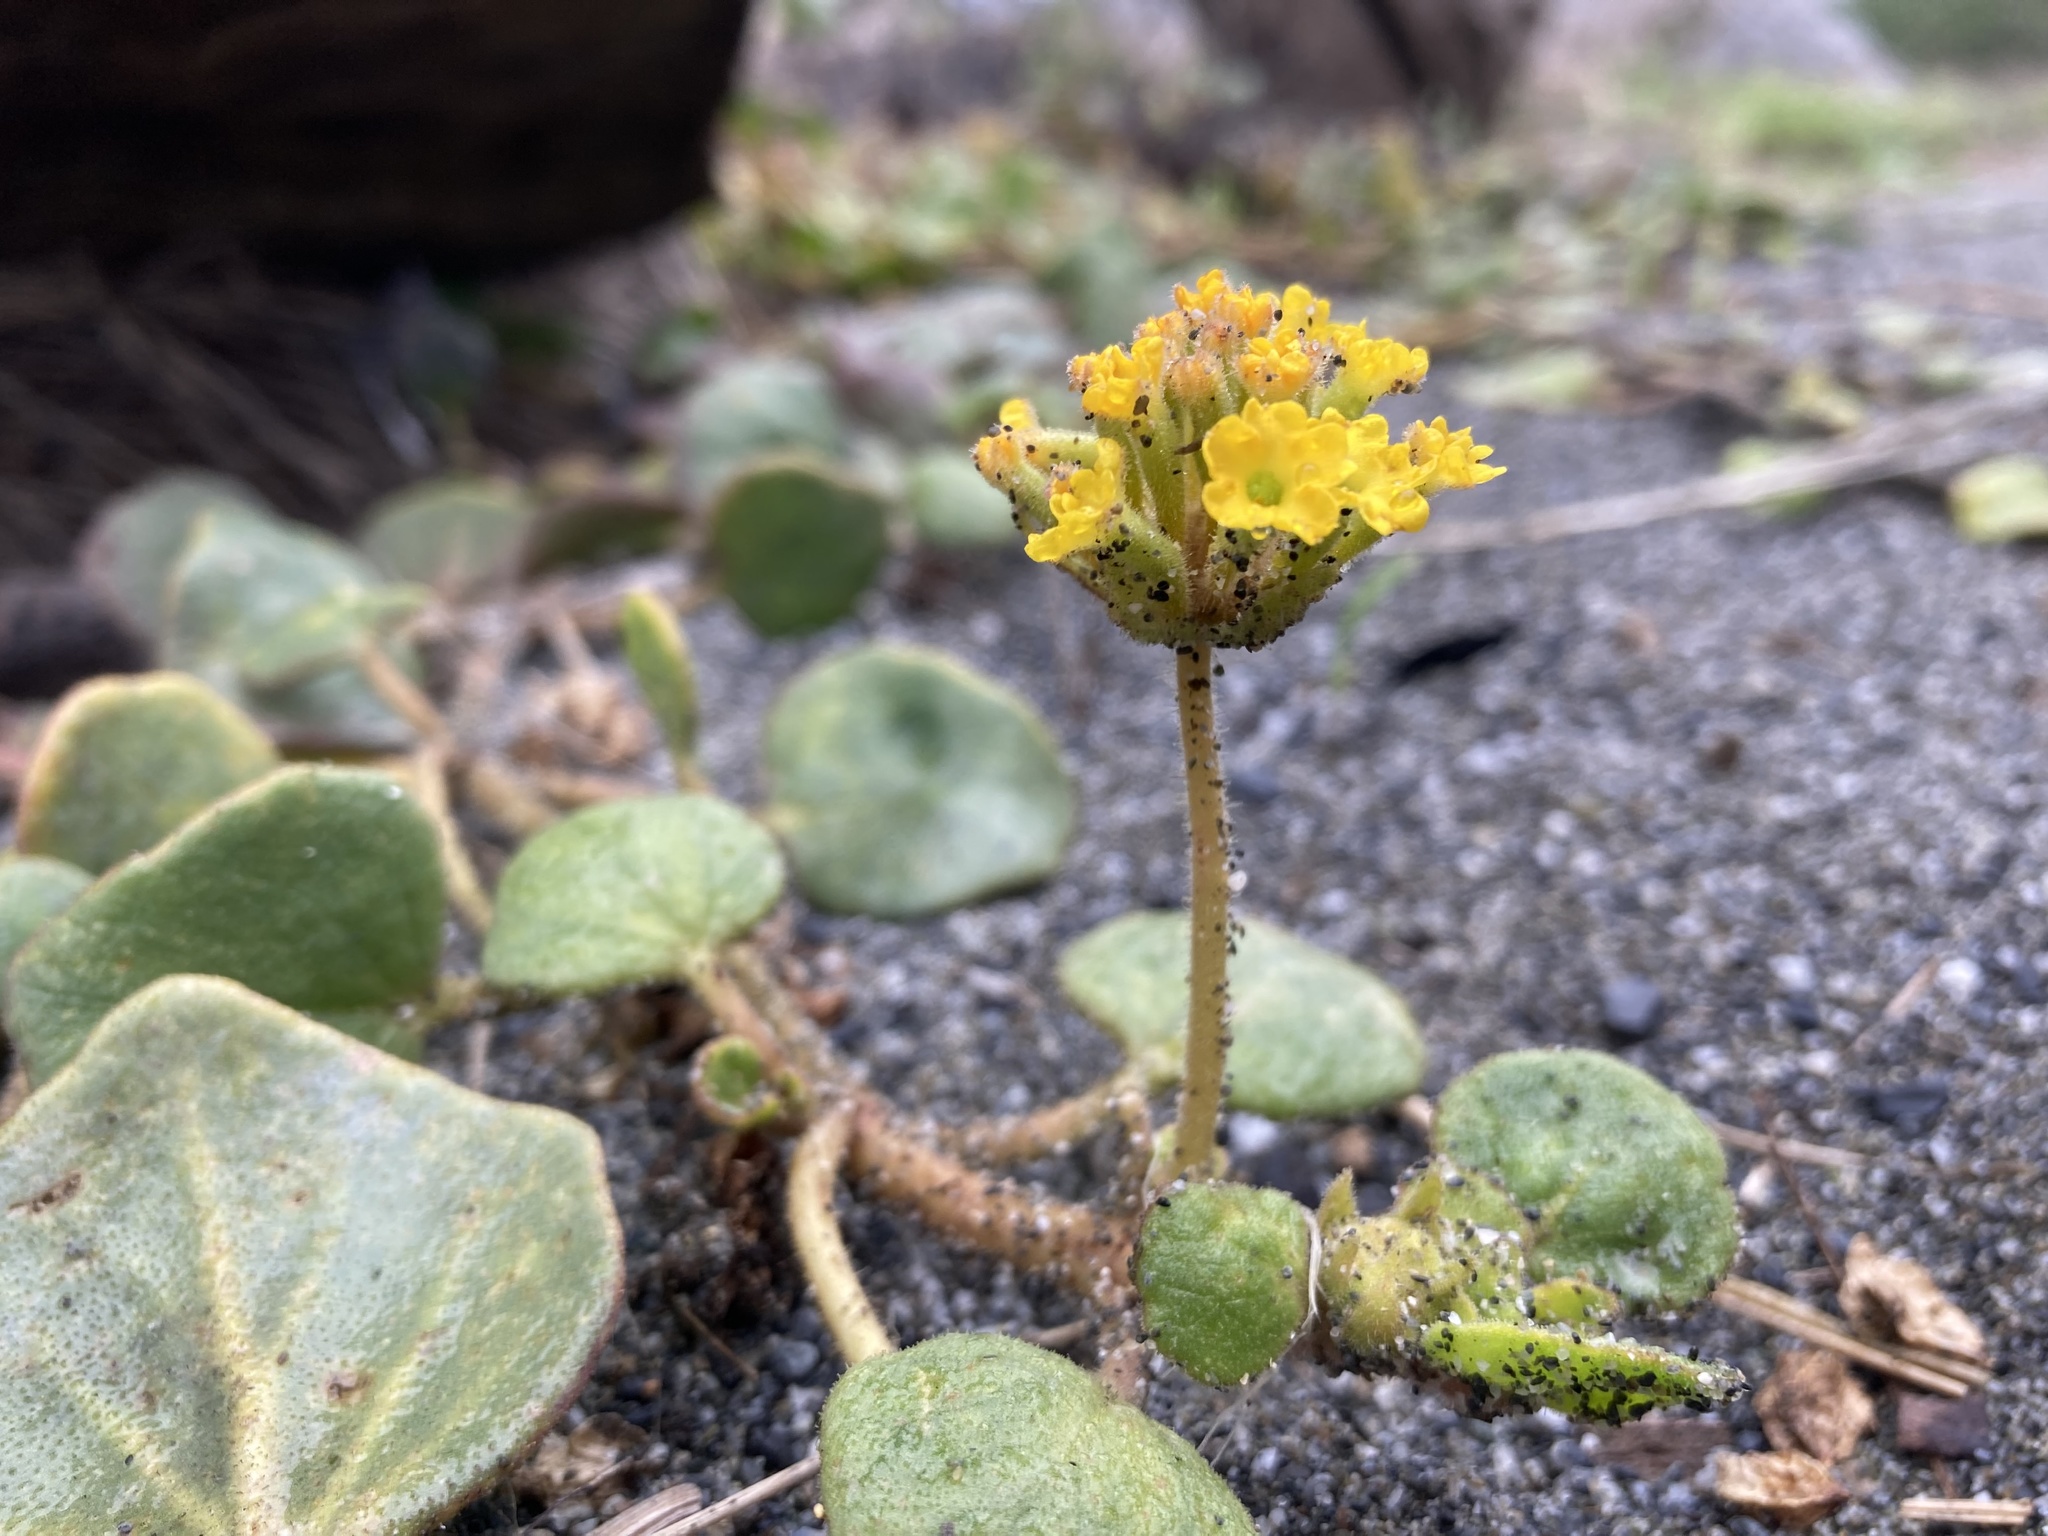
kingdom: Plantae
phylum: Tracheophyta
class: Magnoliopsida
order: Caryophyllales
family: Nyctaginaceae
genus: Abronia
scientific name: Abronia latifolia
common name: Yellow sand-verbena
